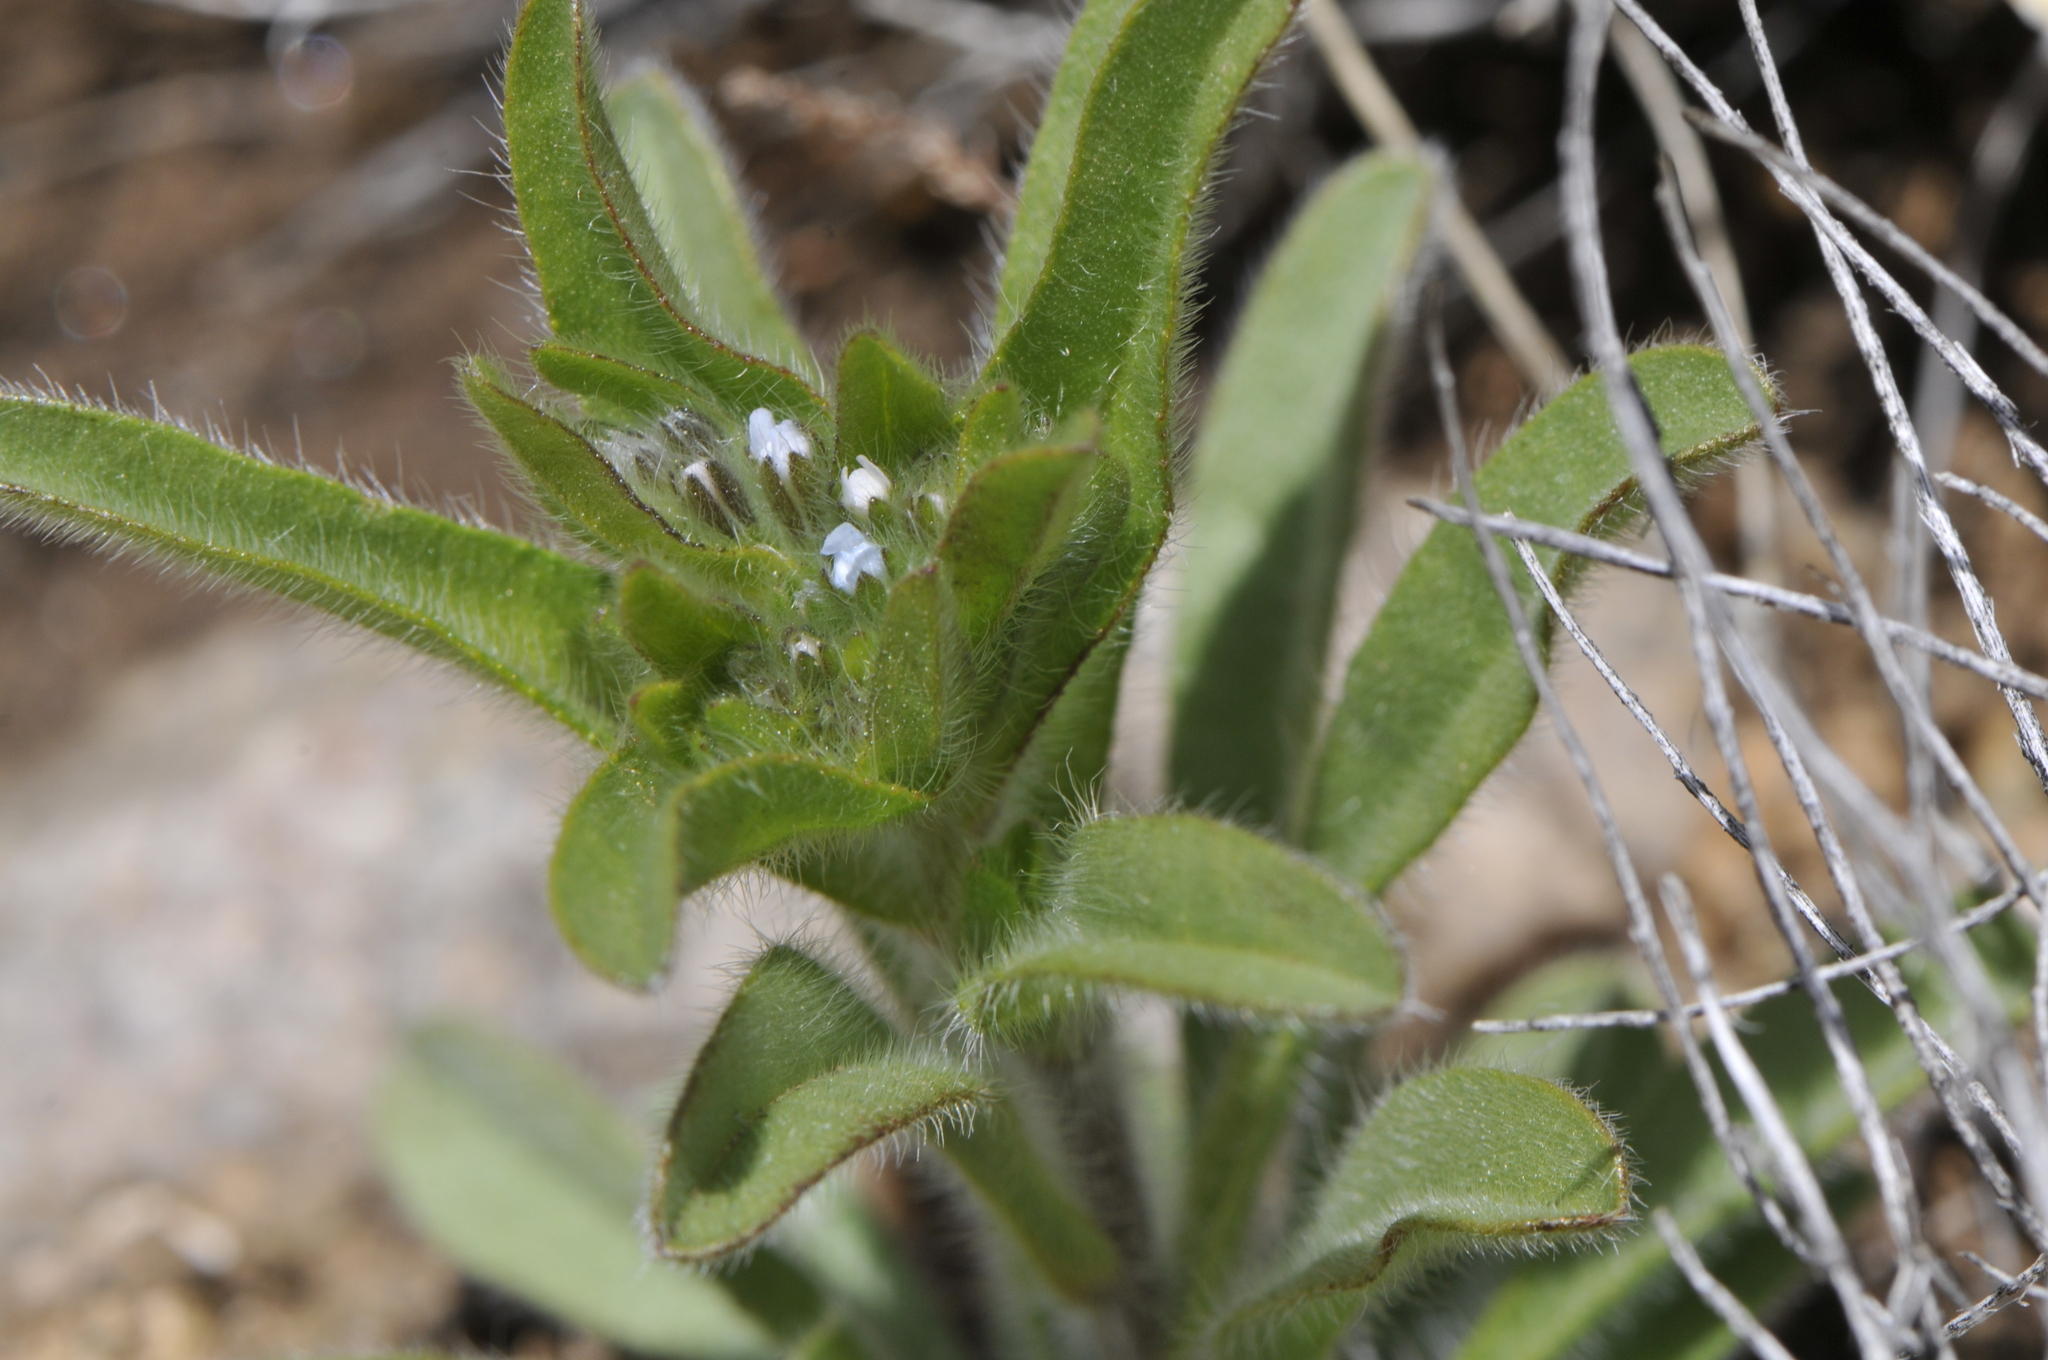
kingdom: Plantae
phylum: Tracheophyta
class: Magnoliopsida
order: Boraginales
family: Boraginaceae
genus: Lappula
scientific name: Lappula
